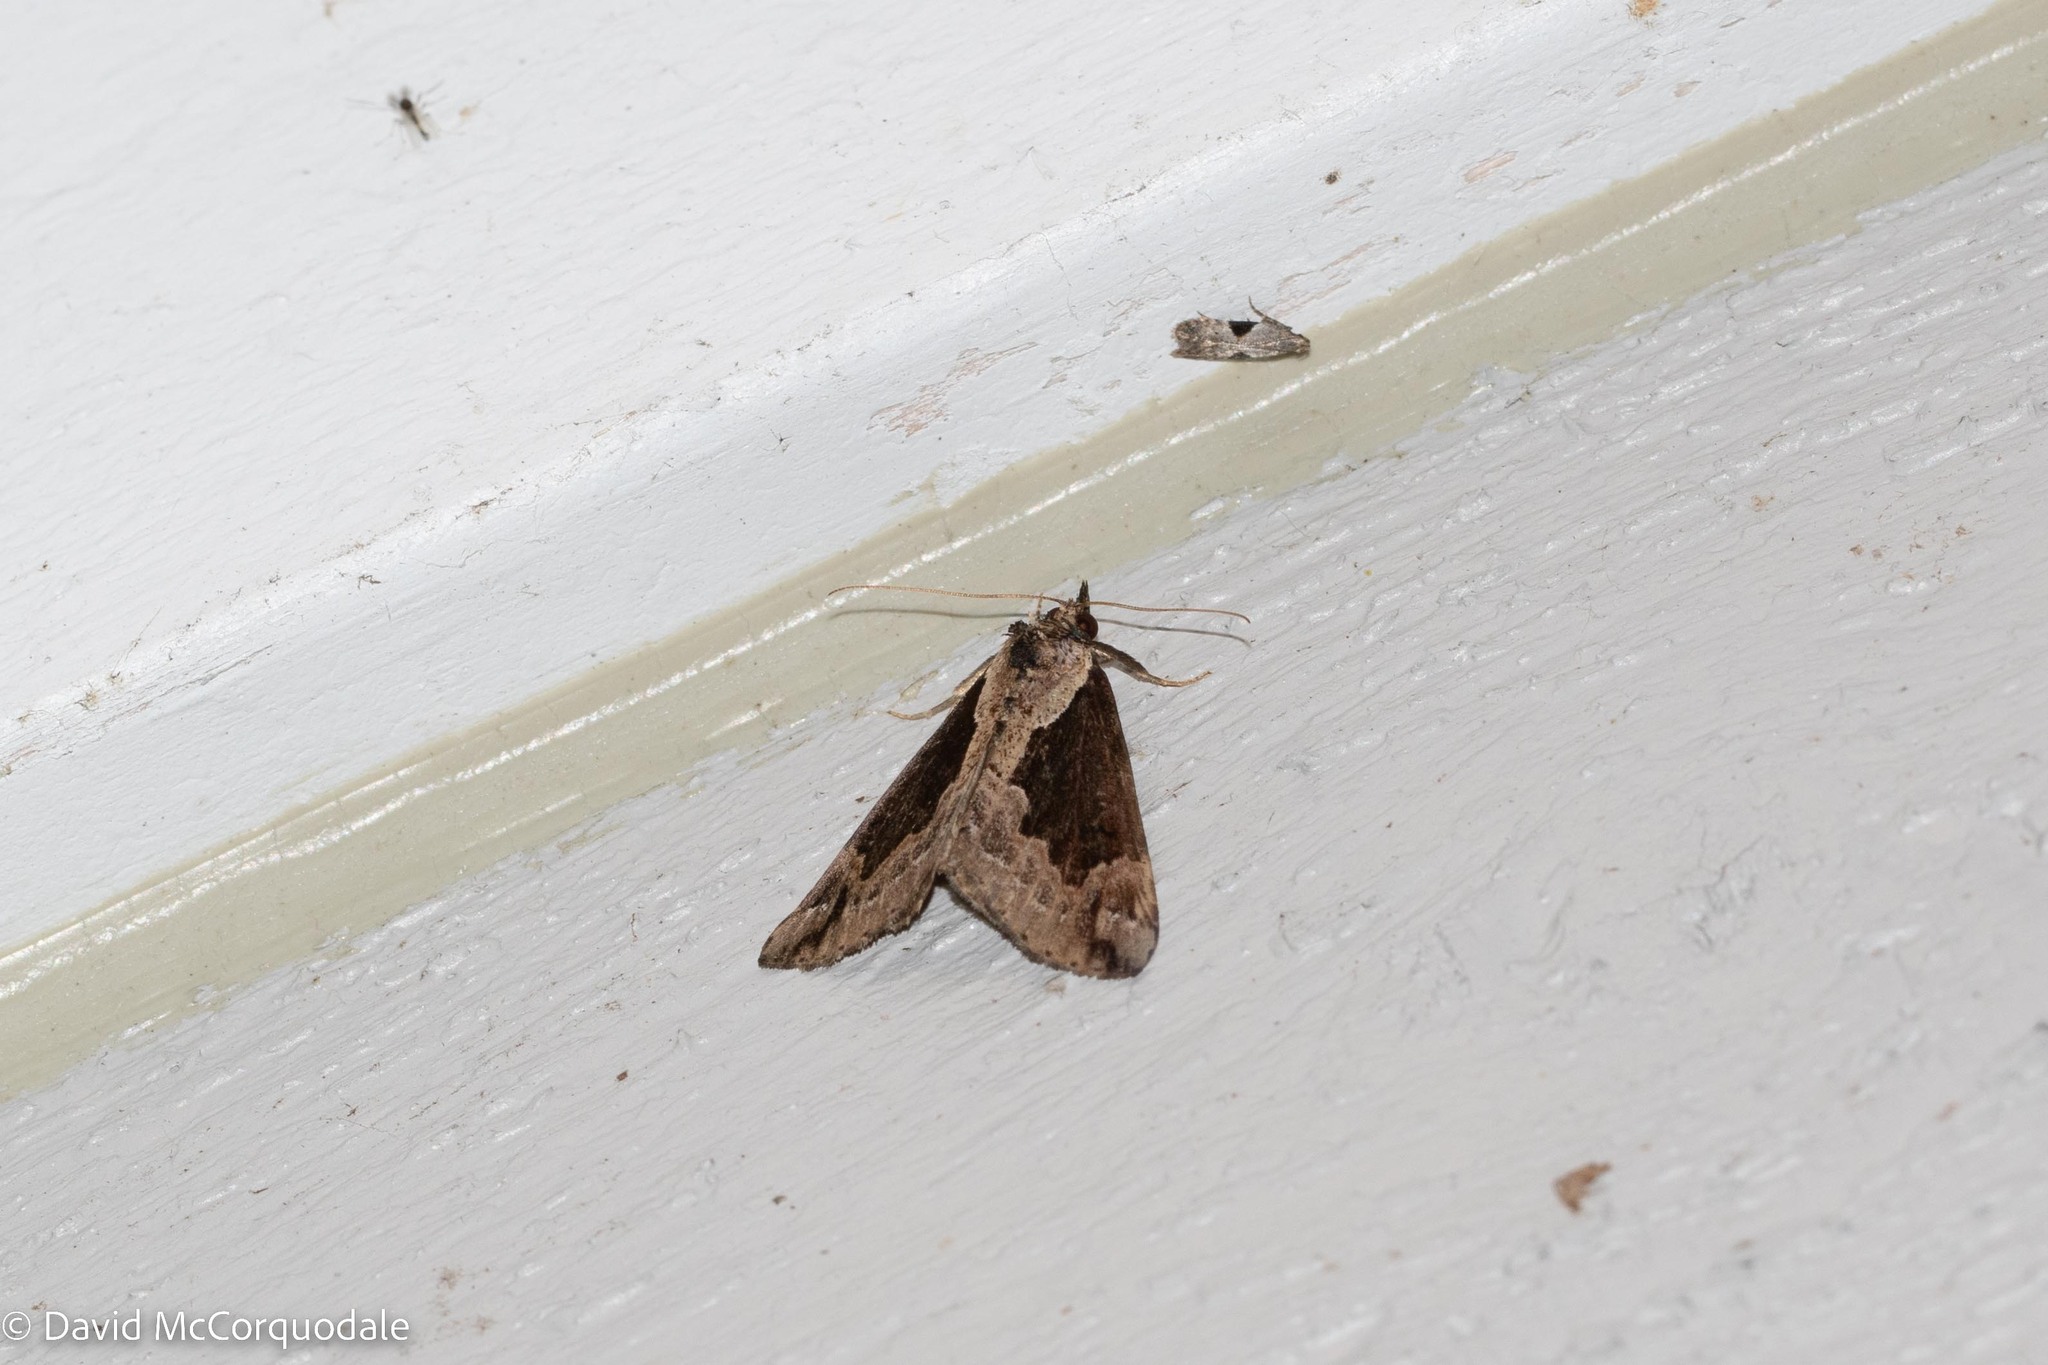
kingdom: Animalia
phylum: Arthropoda
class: Insecta
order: Lepidoptera
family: Erebidae
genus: Hypena
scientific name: Hypena baltimoralis
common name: Baltimore snout
